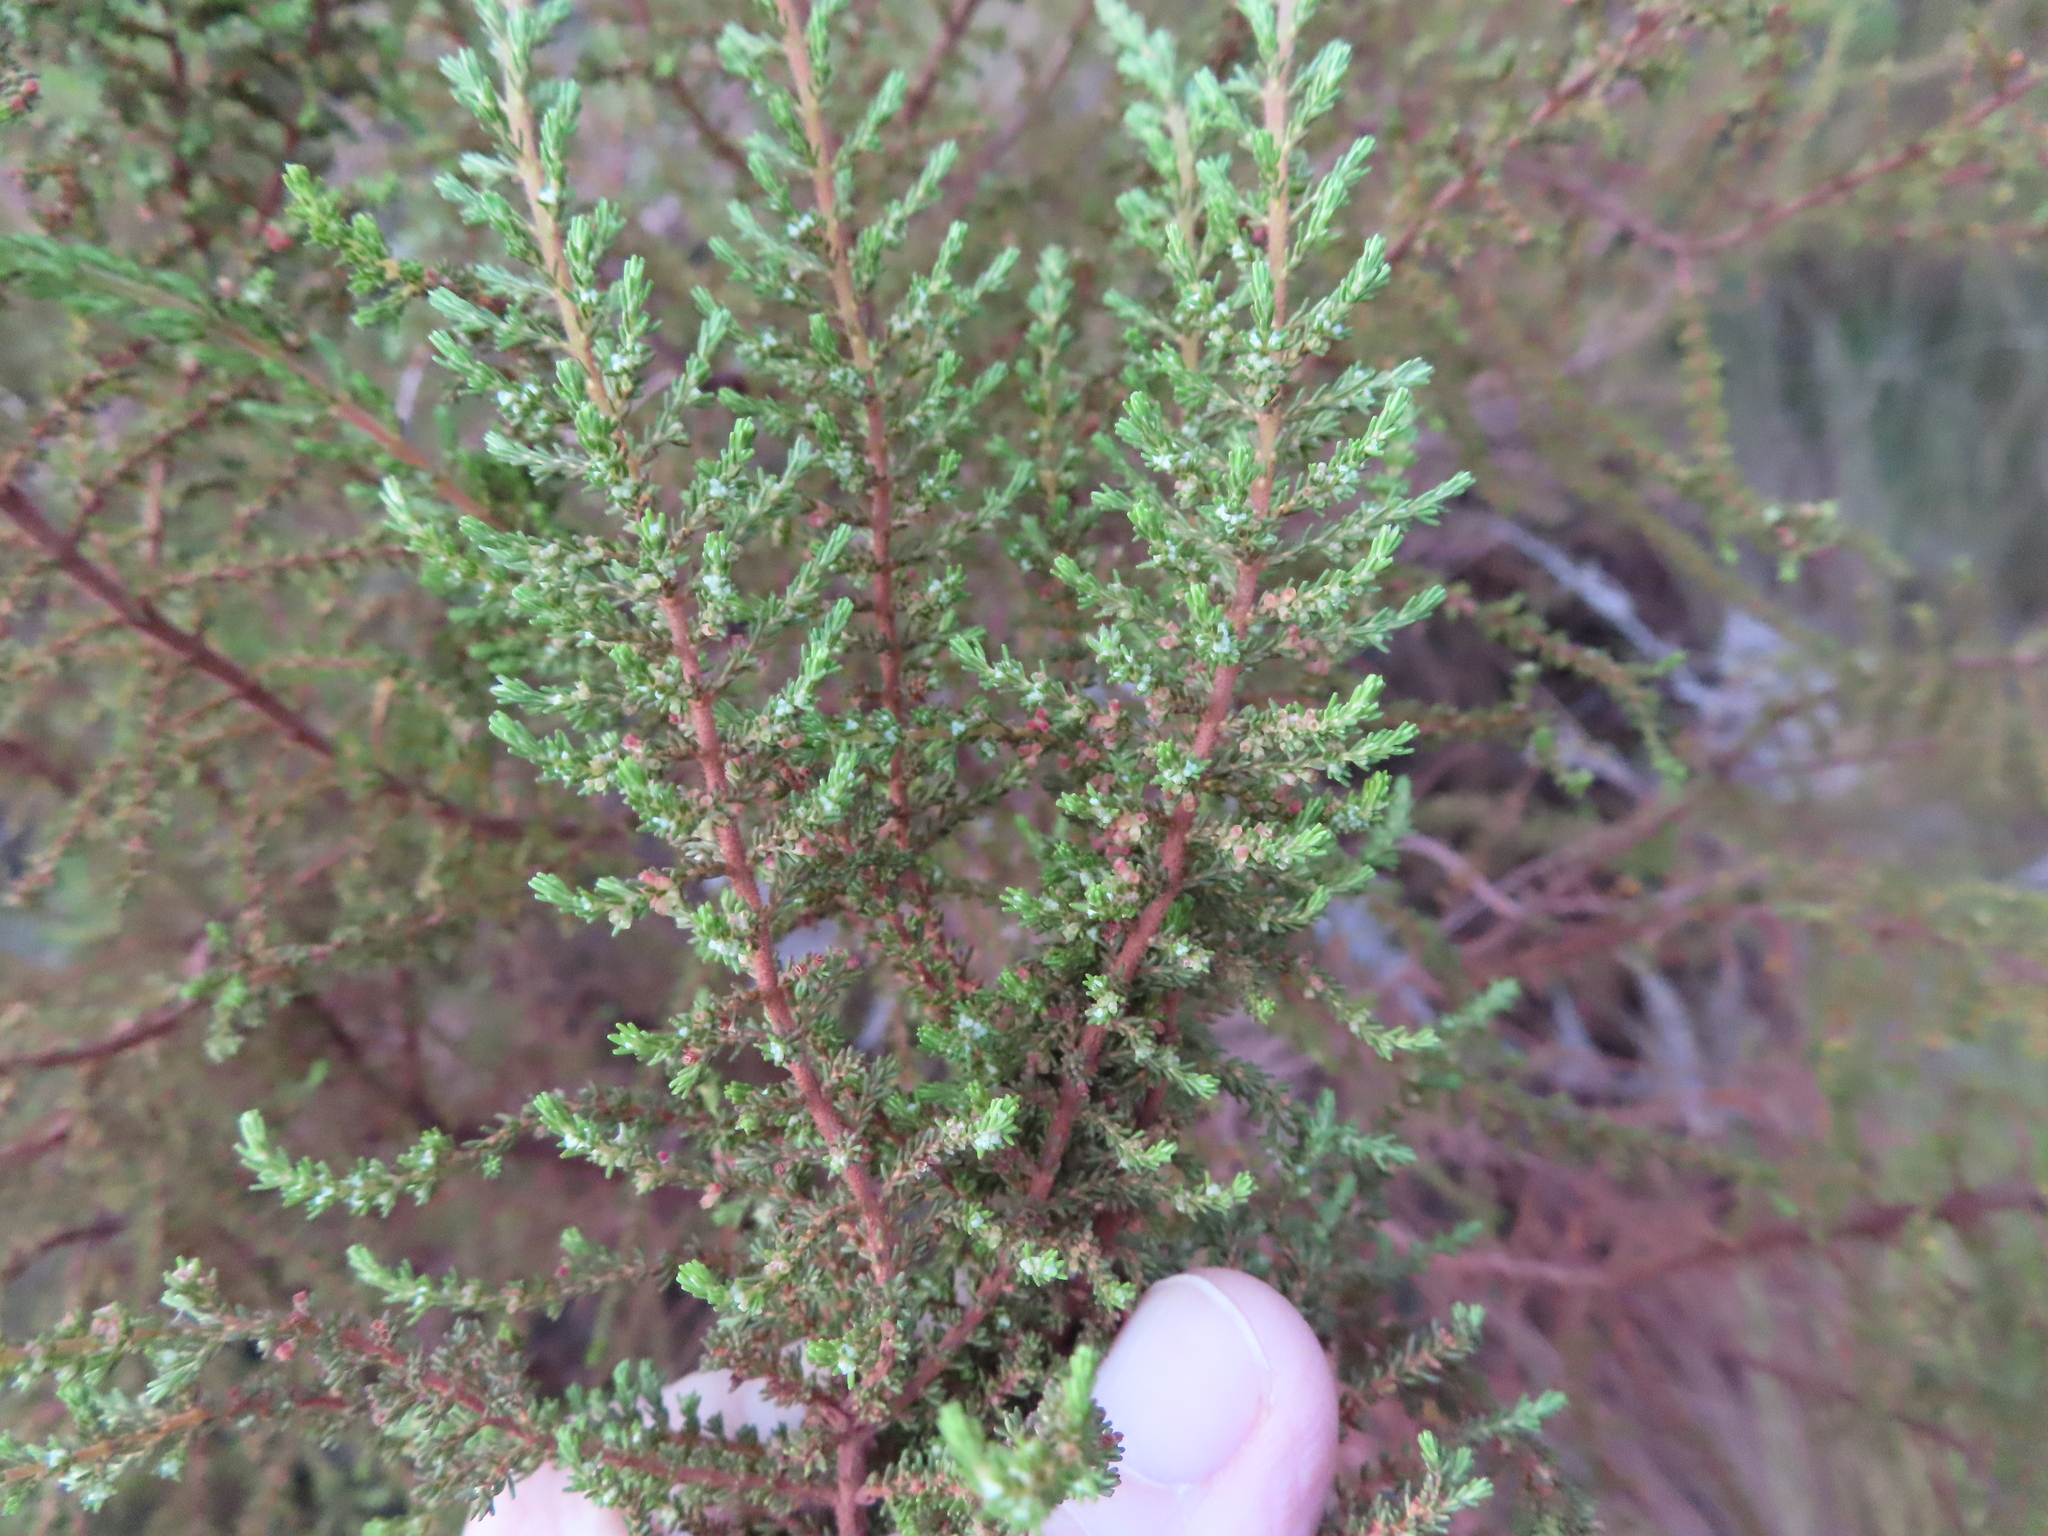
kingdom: Plantae
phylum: Tracheophyta
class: Magnoliopsida
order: Ericales
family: Ericaceae
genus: Erica
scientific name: Erica muscosa
